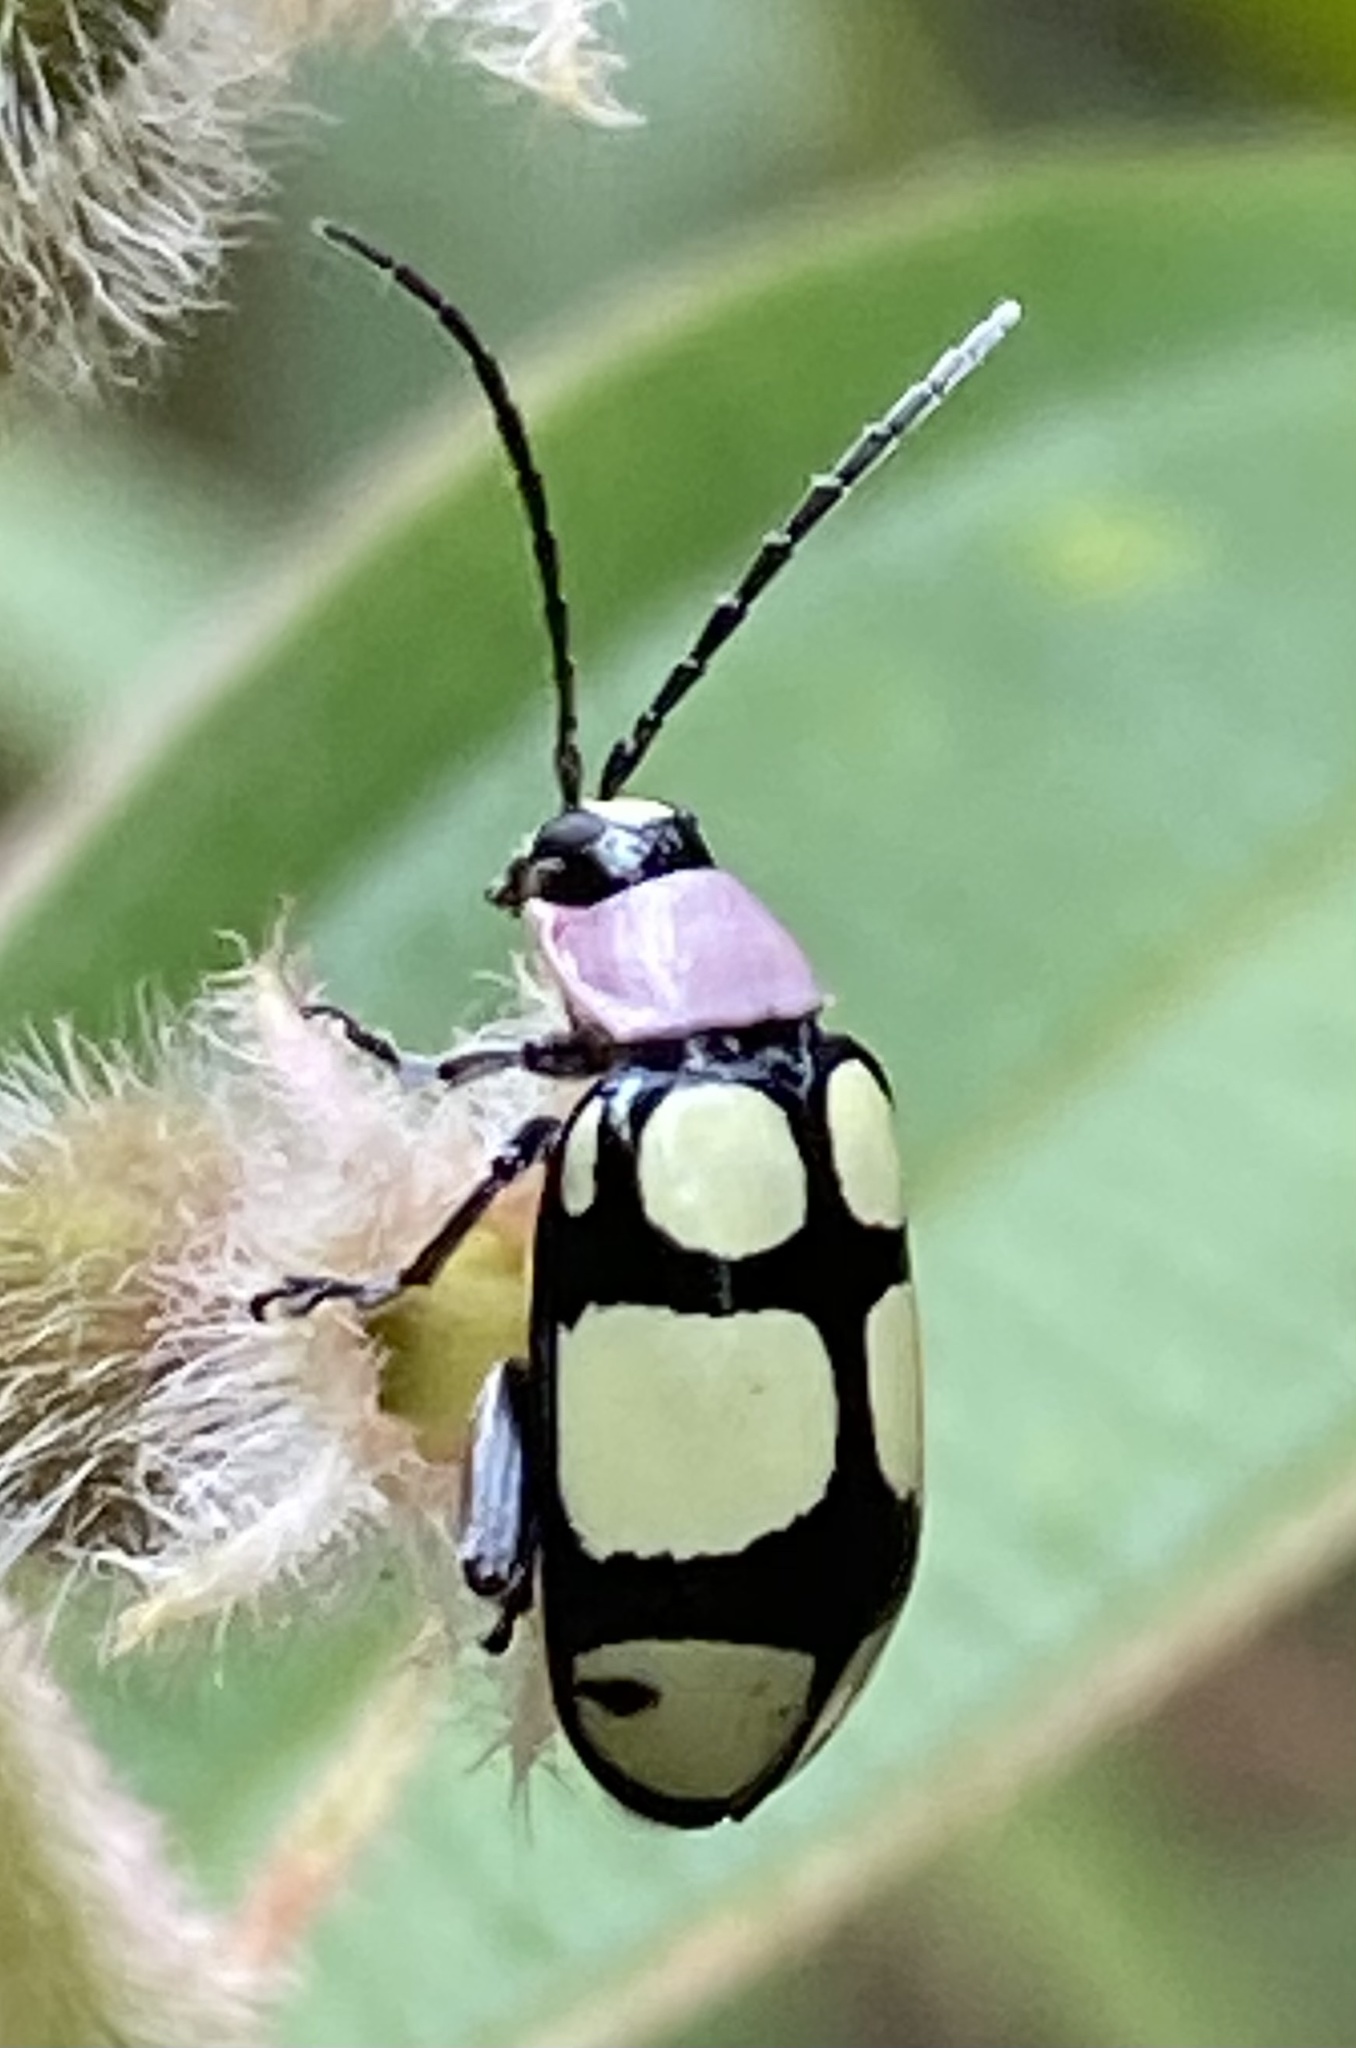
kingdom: Animalia
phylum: Arthropoda
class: Insecta
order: Coleoptera
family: Chrysomelidae
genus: Omophoita
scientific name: Omophoita
